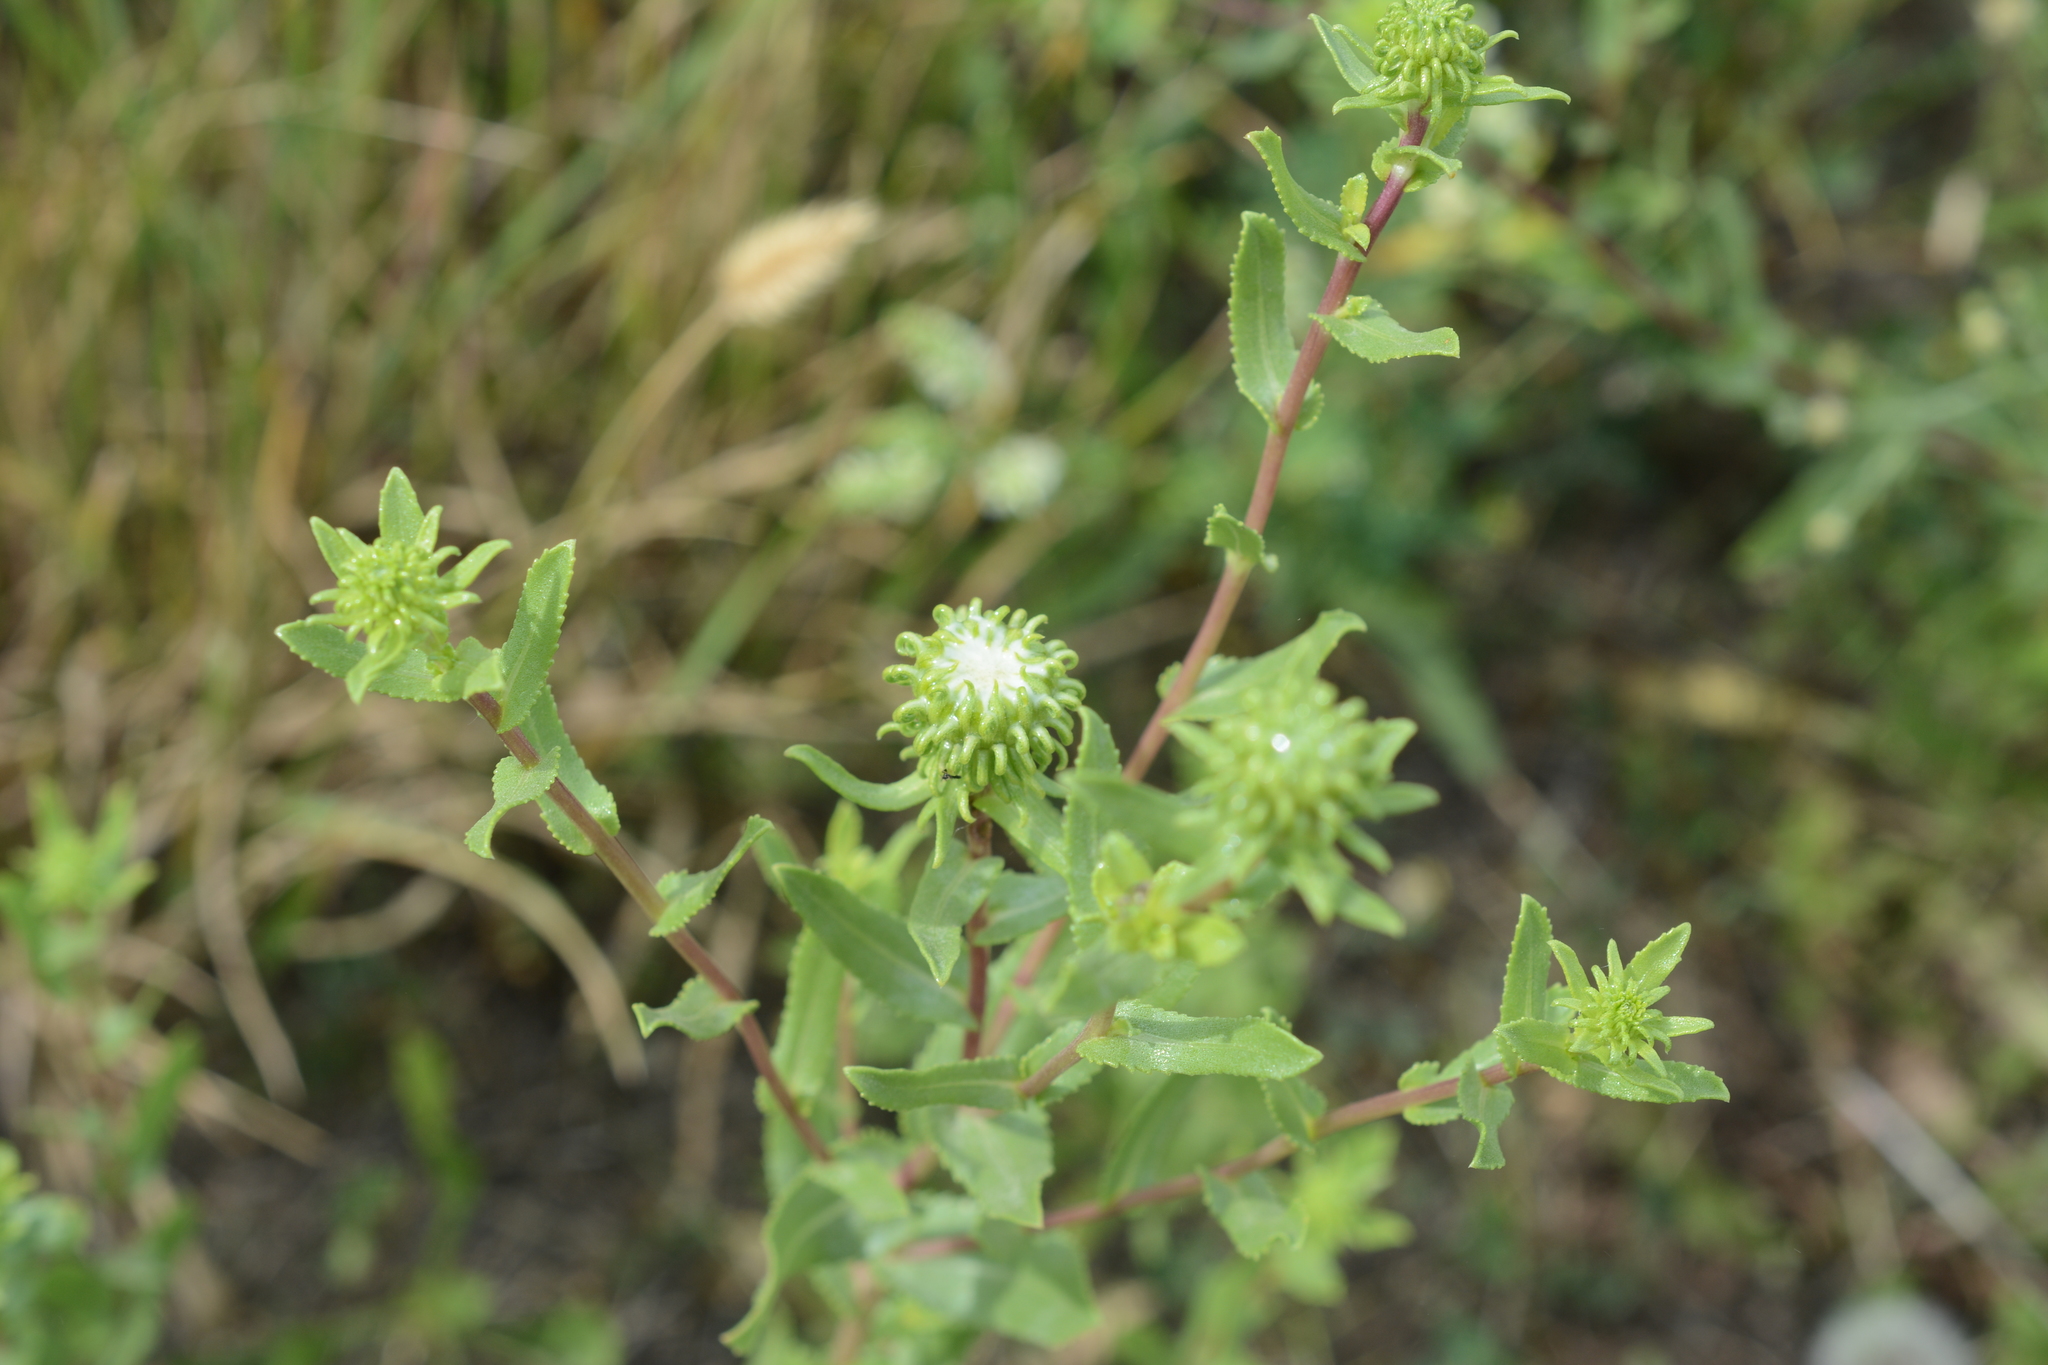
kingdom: Plantae
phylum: Tracheophyta
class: Magnoliopsida
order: Asterales
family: Asteraceae
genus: Grindelia
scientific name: Grindelia squarrosa
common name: Curly-cup gumweed
